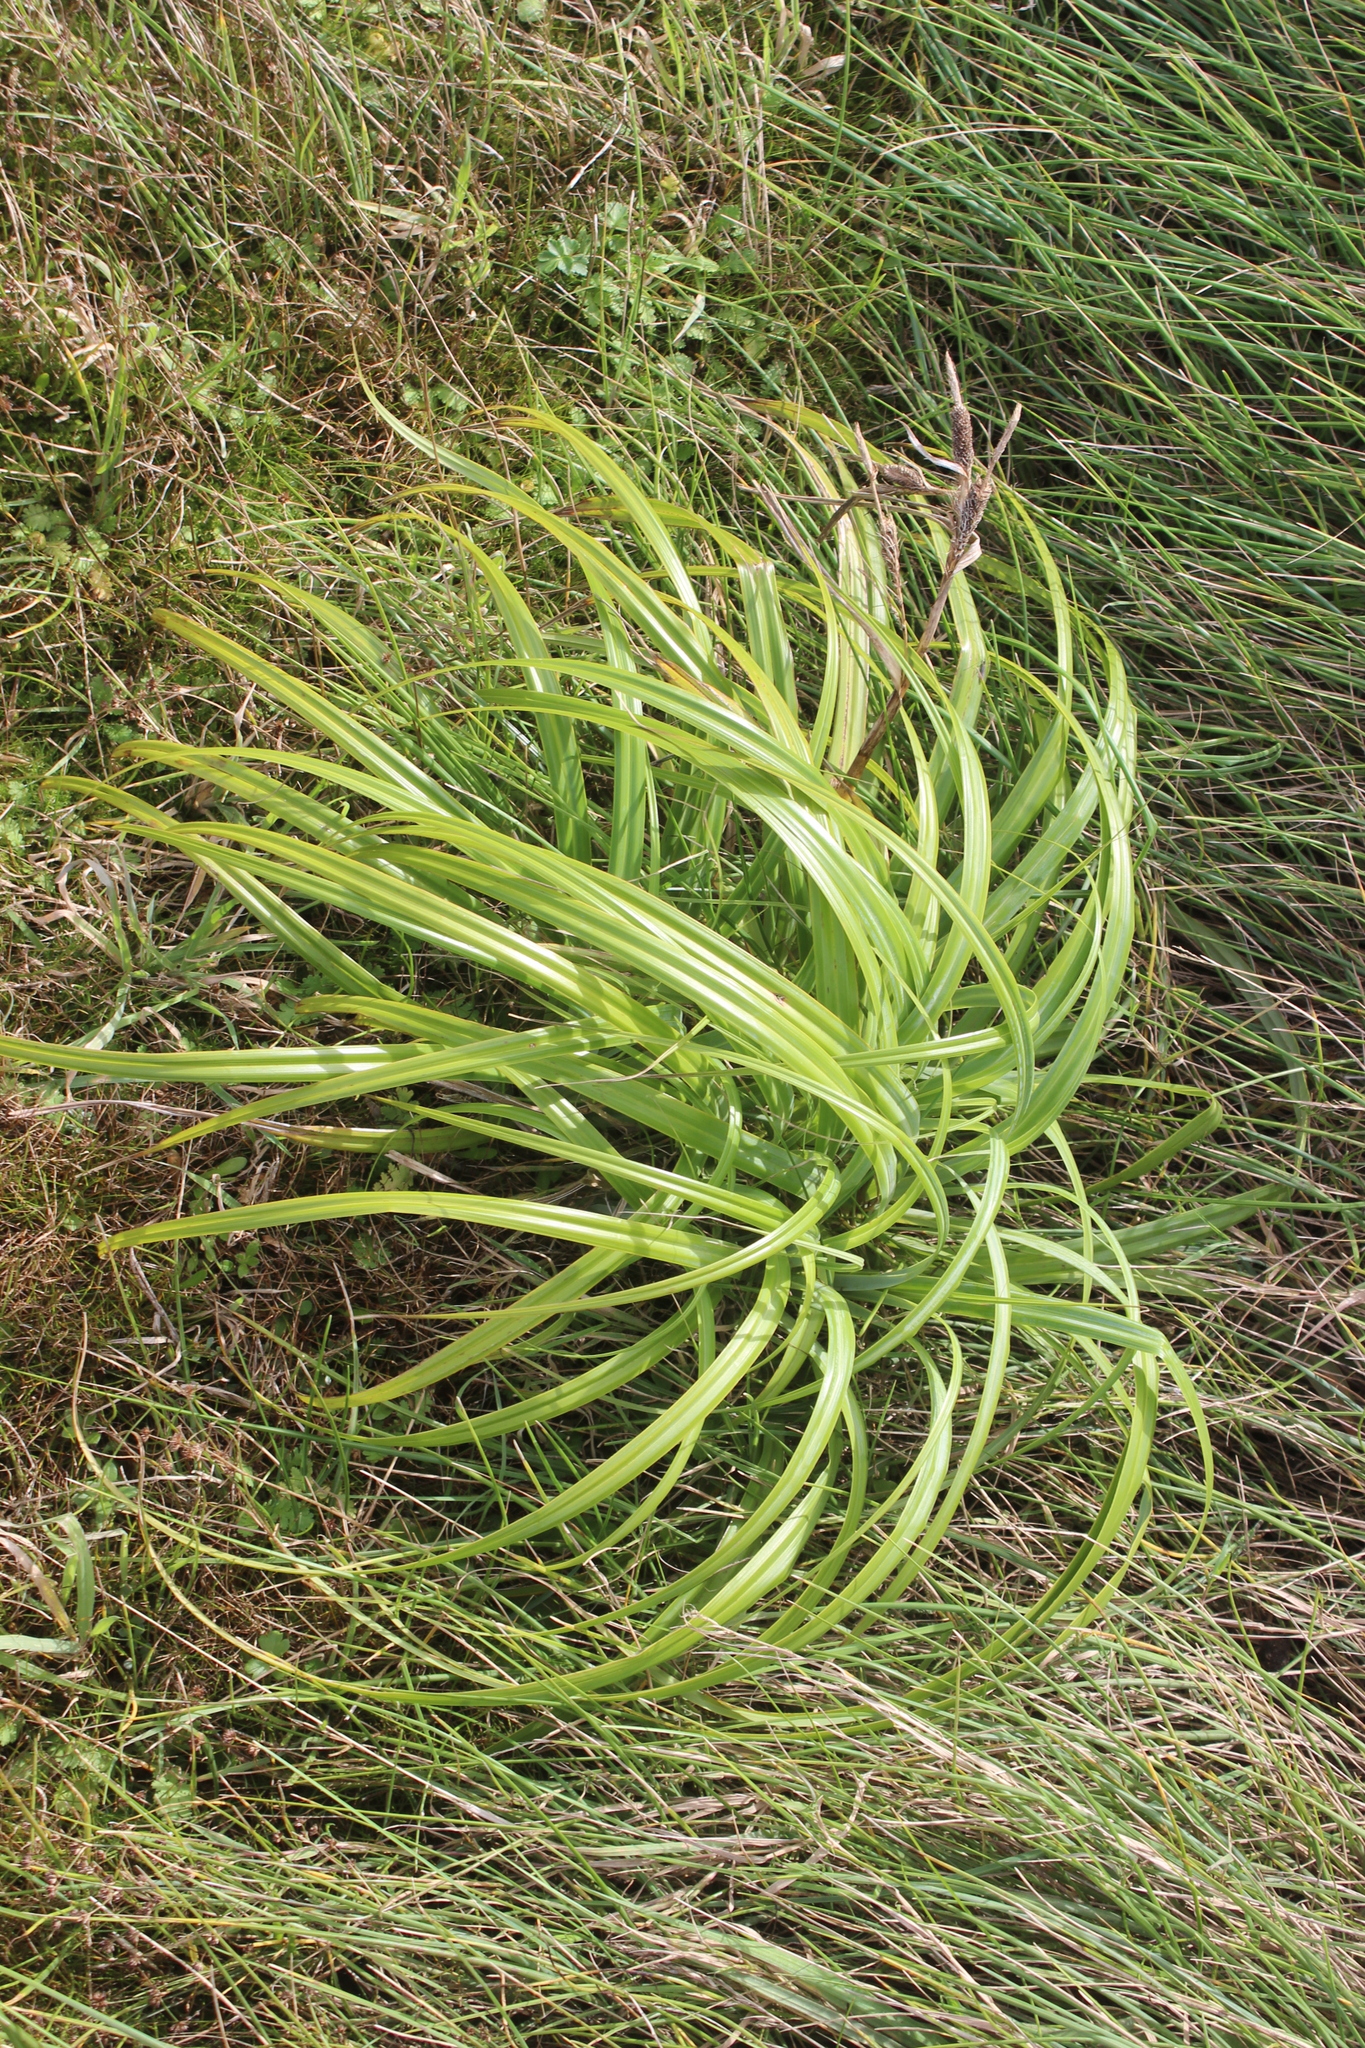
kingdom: Plantae
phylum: Tracheophyta
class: Liliopsida
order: Poales
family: Cyperaceae
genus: Carex
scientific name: Carex trifida
